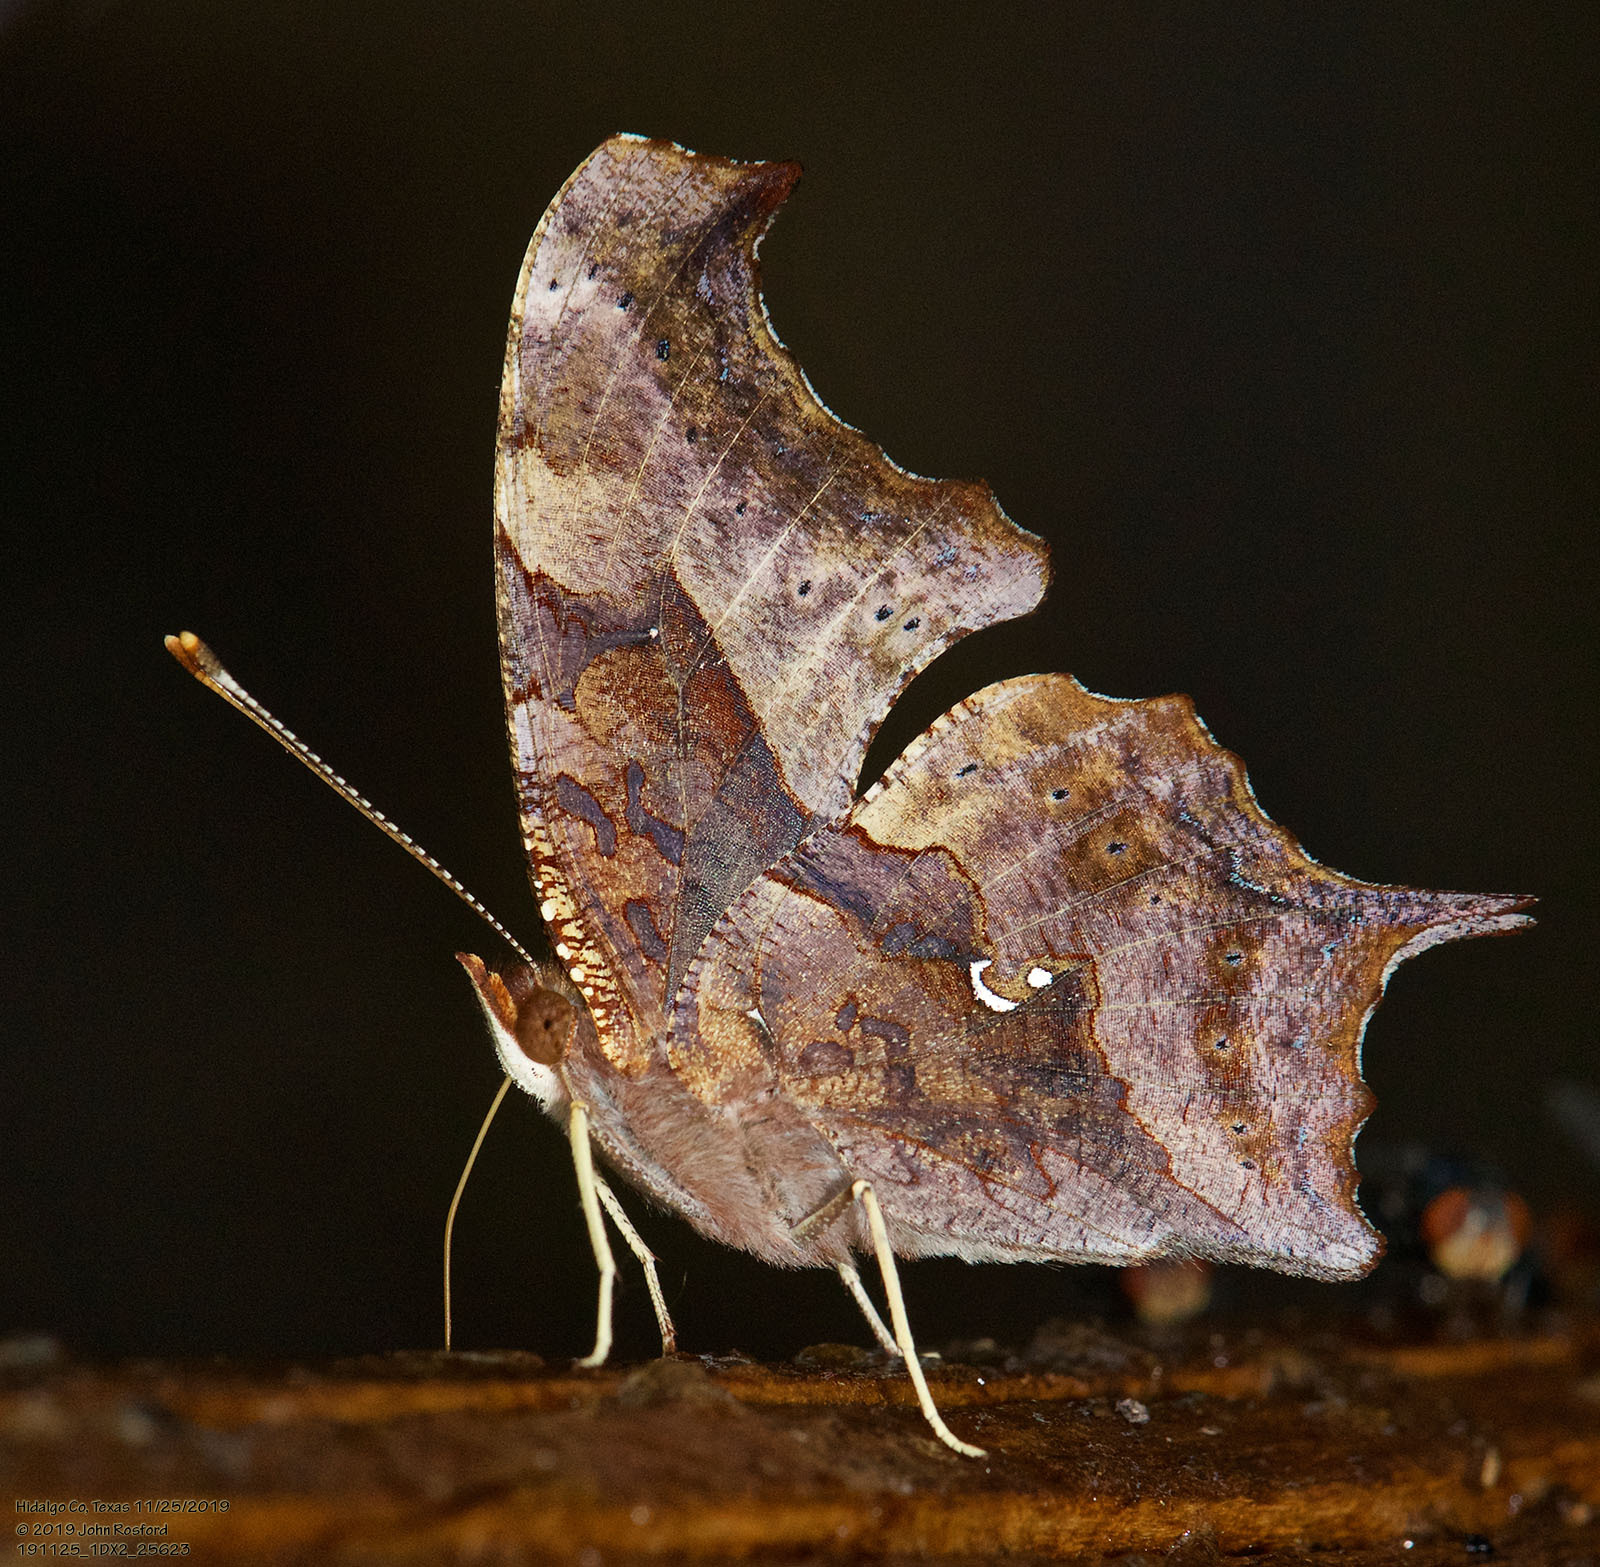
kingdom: Animalia
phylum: Arthropoda
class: Insecta
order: Lepidoptera
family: Nymphalidae
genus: Polygonia
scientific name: Polygonia interrogationis
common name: Question mark
